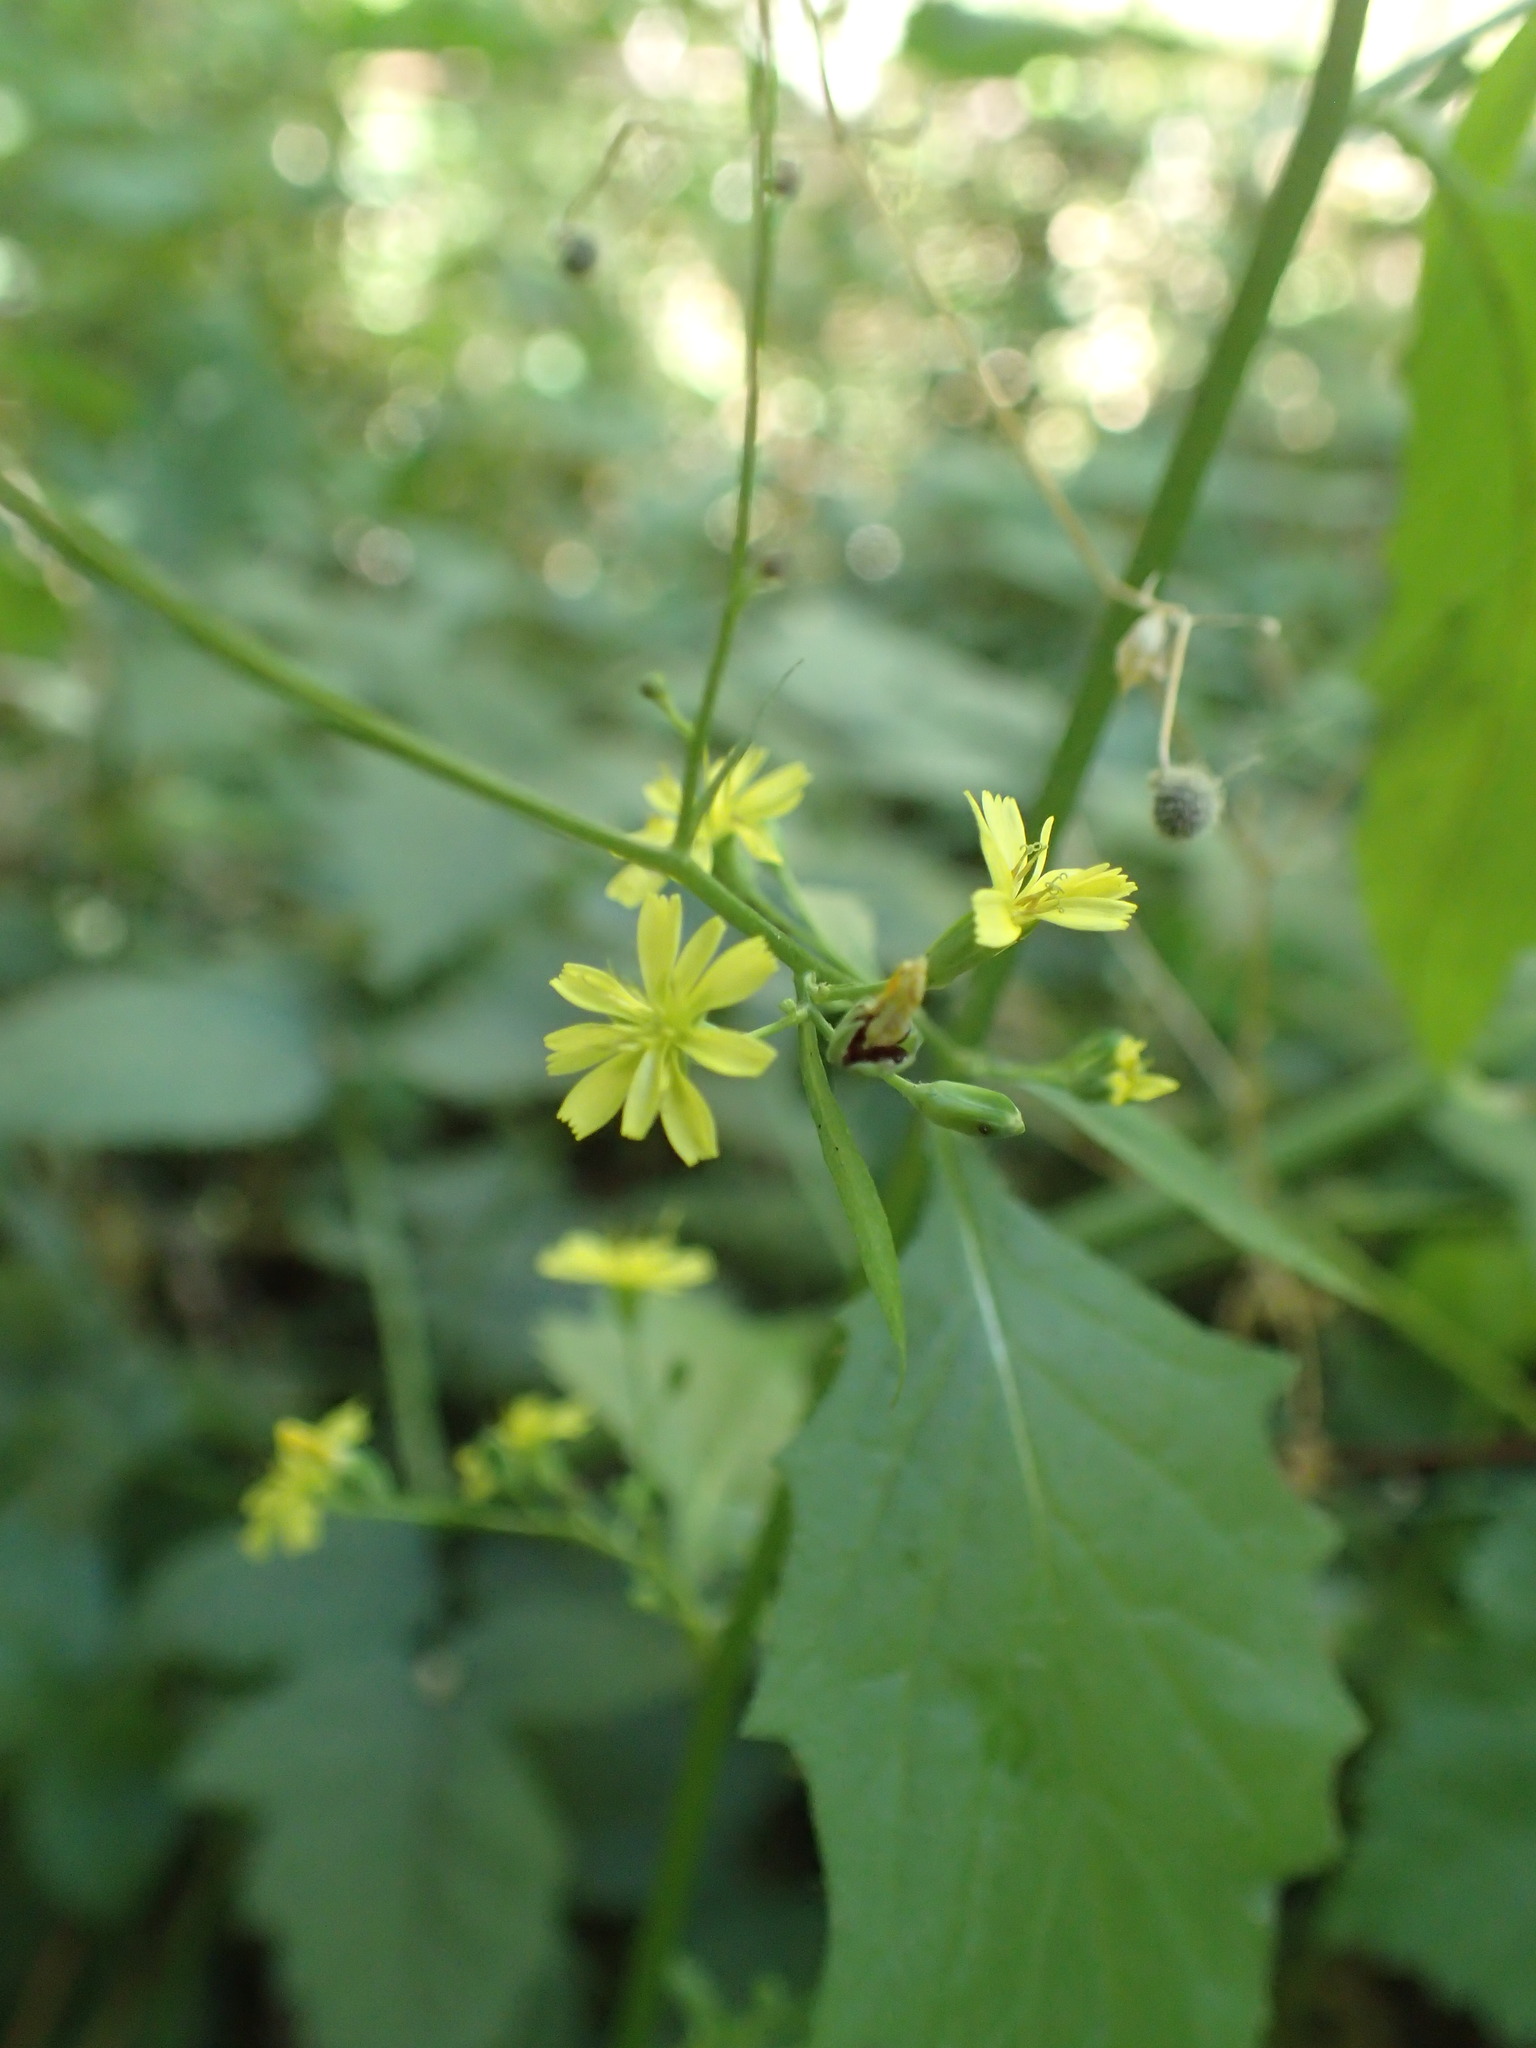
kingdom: Plantae
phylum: Tracheophyta
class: Magnoliopsida
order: Asterales
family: Asteraceae
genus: Lapsana
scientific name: Lapsana communis
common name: Nipplewort
